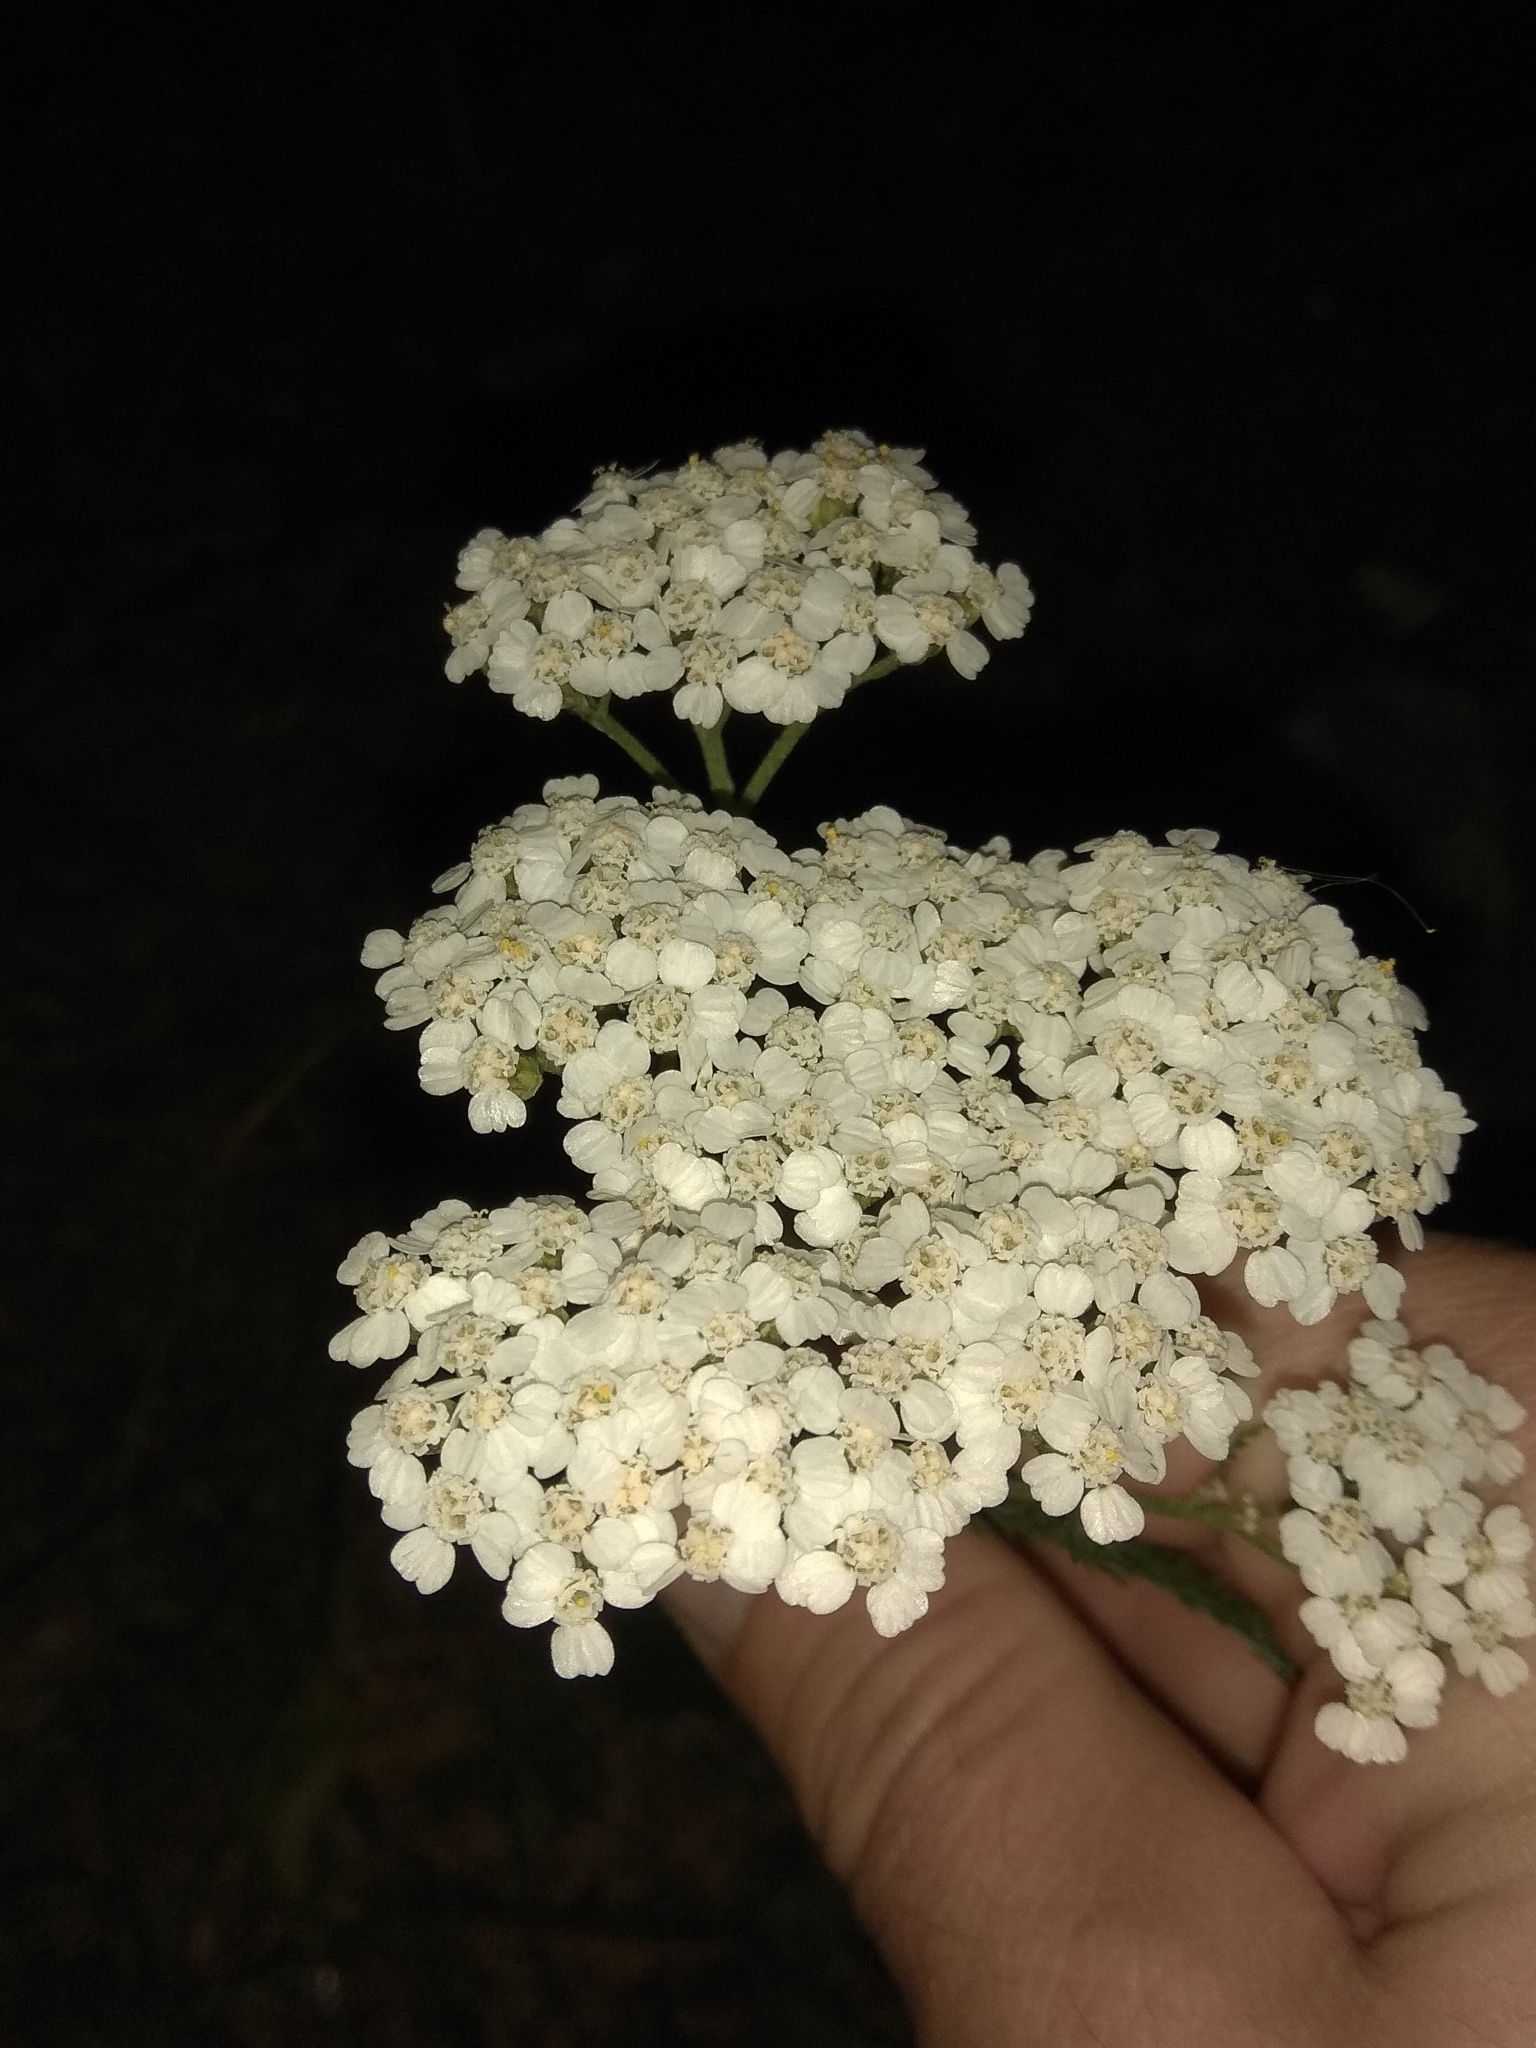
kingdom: Plantae
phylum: Tracheophyta
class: Magnoliopsida
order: Asterales
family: Asteraceae
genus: Achillea
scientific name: Achillea millefolium
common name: Yarrow
